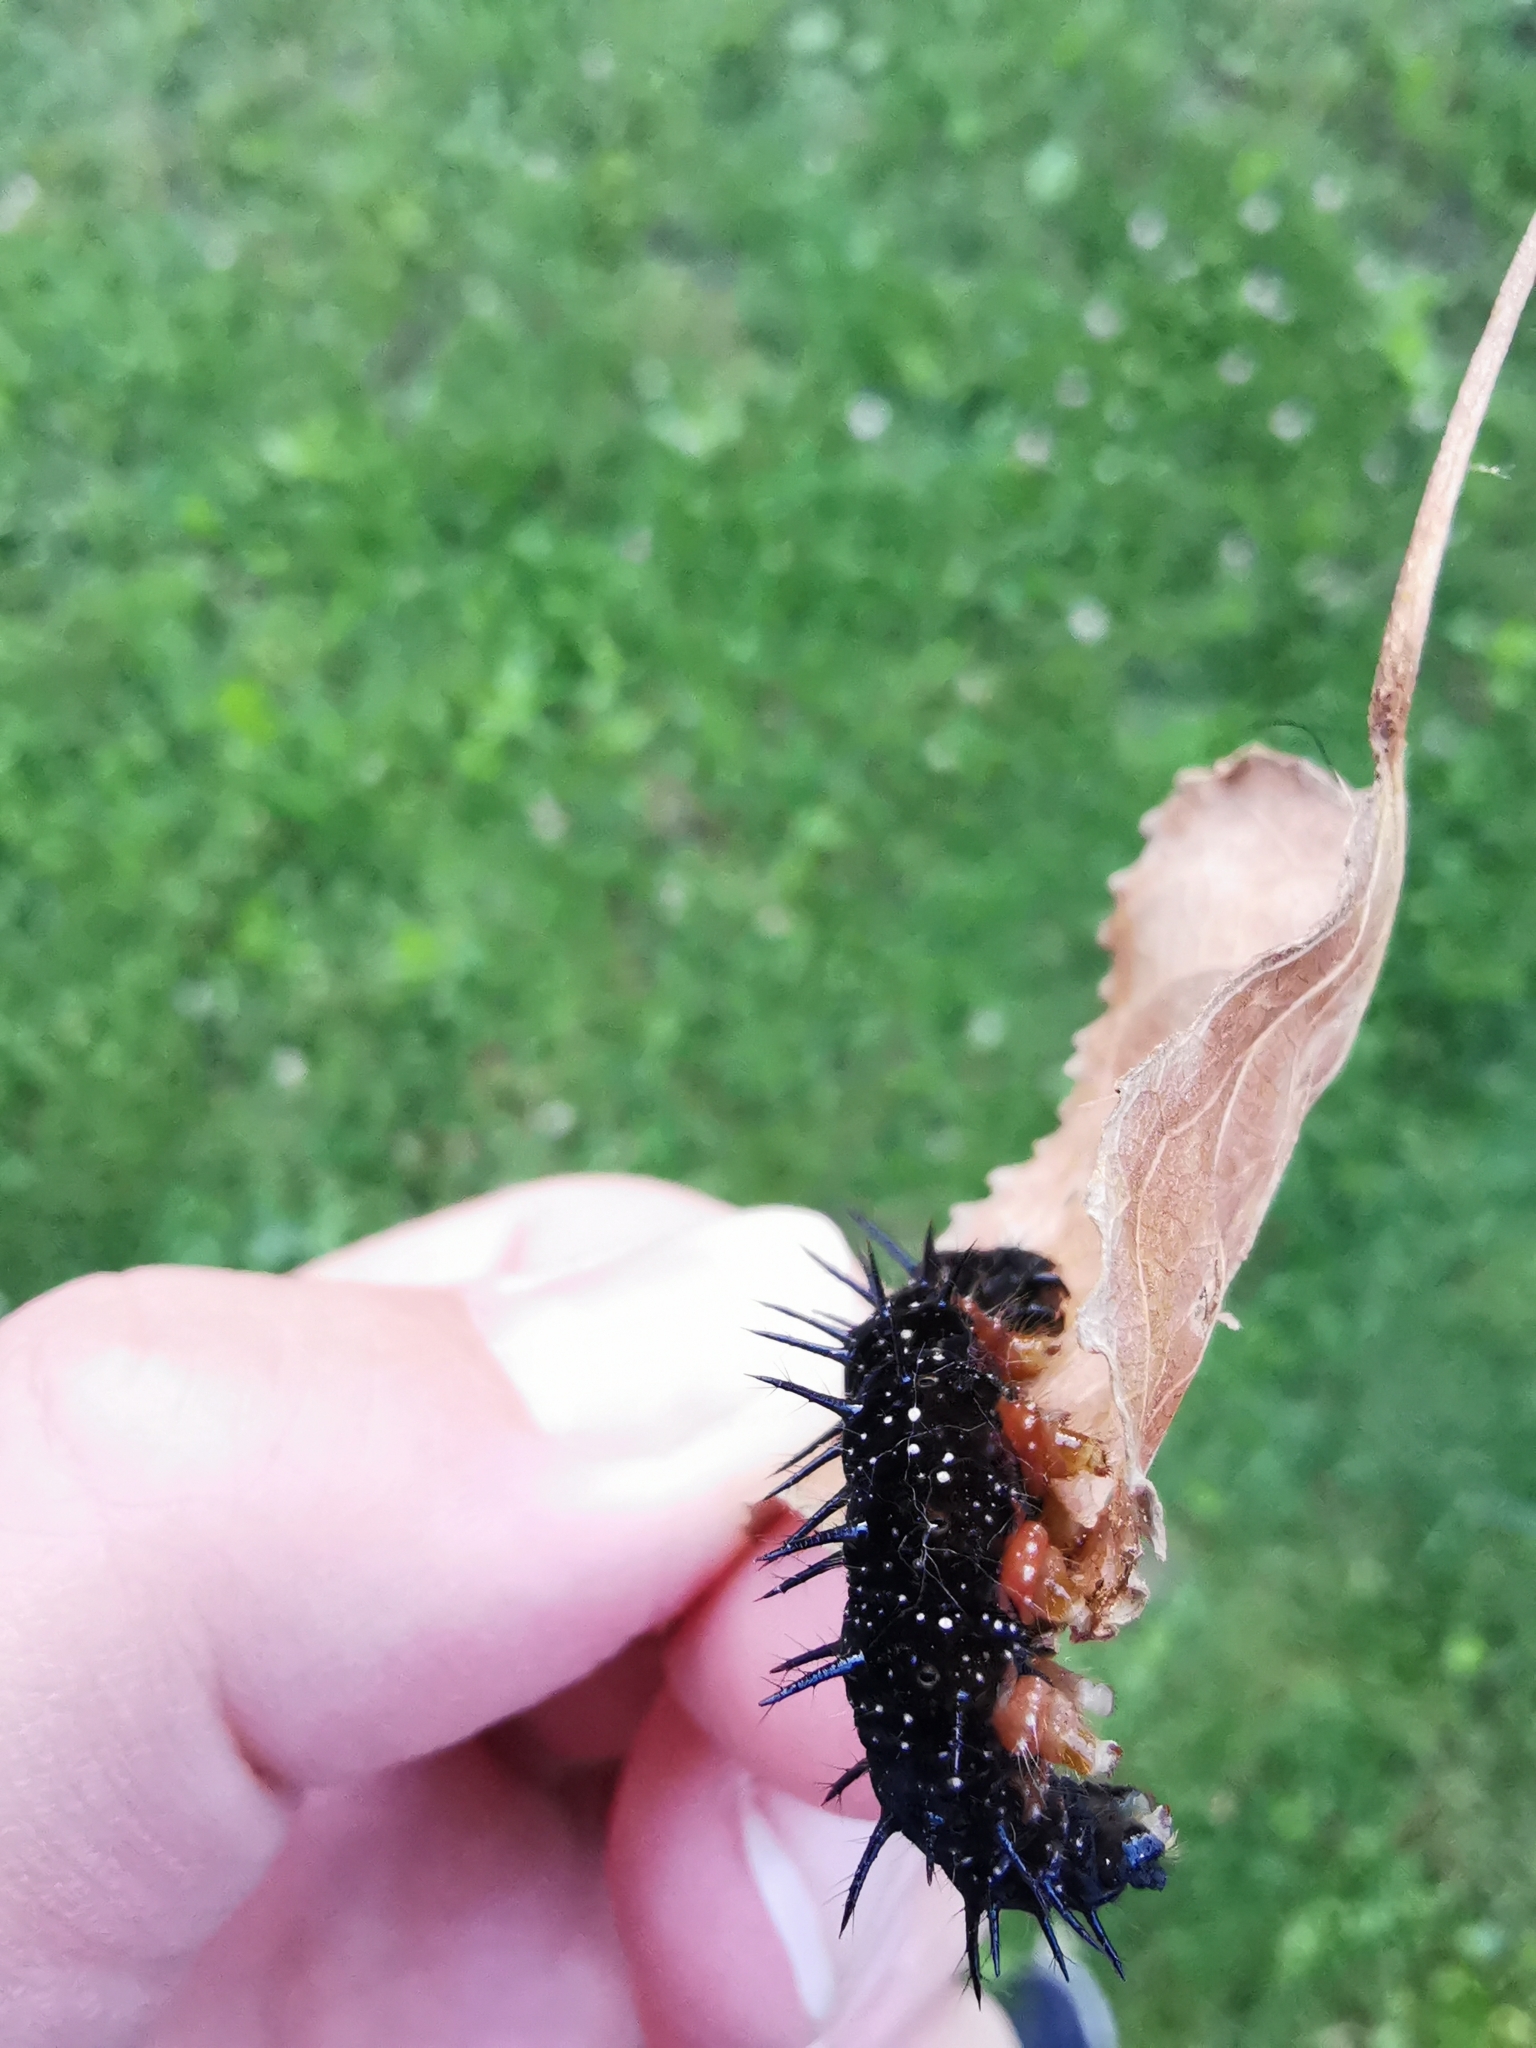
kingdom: Animalia
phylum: Arthropoda
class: Insecta
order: Lepidoptera
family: Nymphalidae
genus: Aglais
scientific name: Aglais io
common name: Peacock
